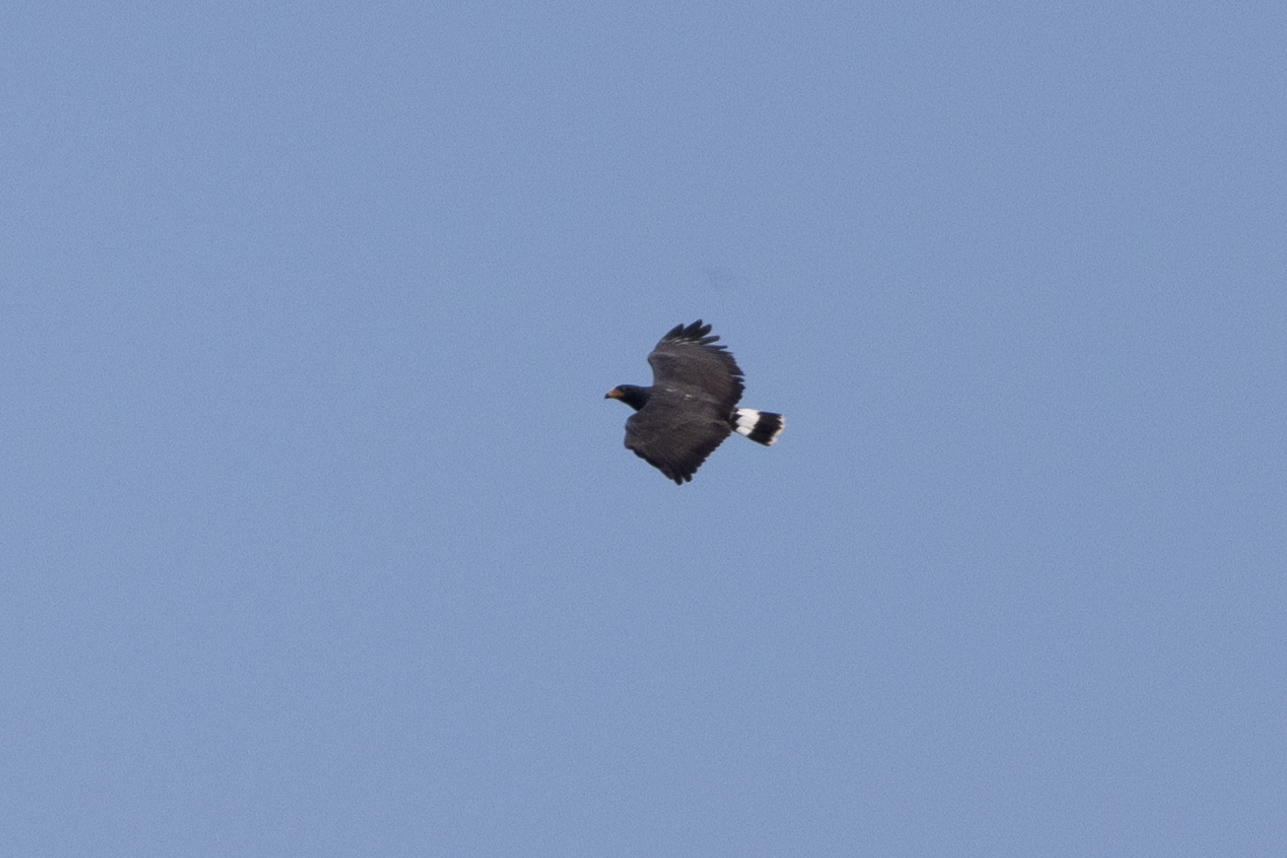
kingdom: Animalia
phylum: Chordata
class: Aves
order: Accipitriformes
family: Accipitridae
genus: Buteogallus
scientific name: Buteogallus anthracinus
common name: Common black hawk
